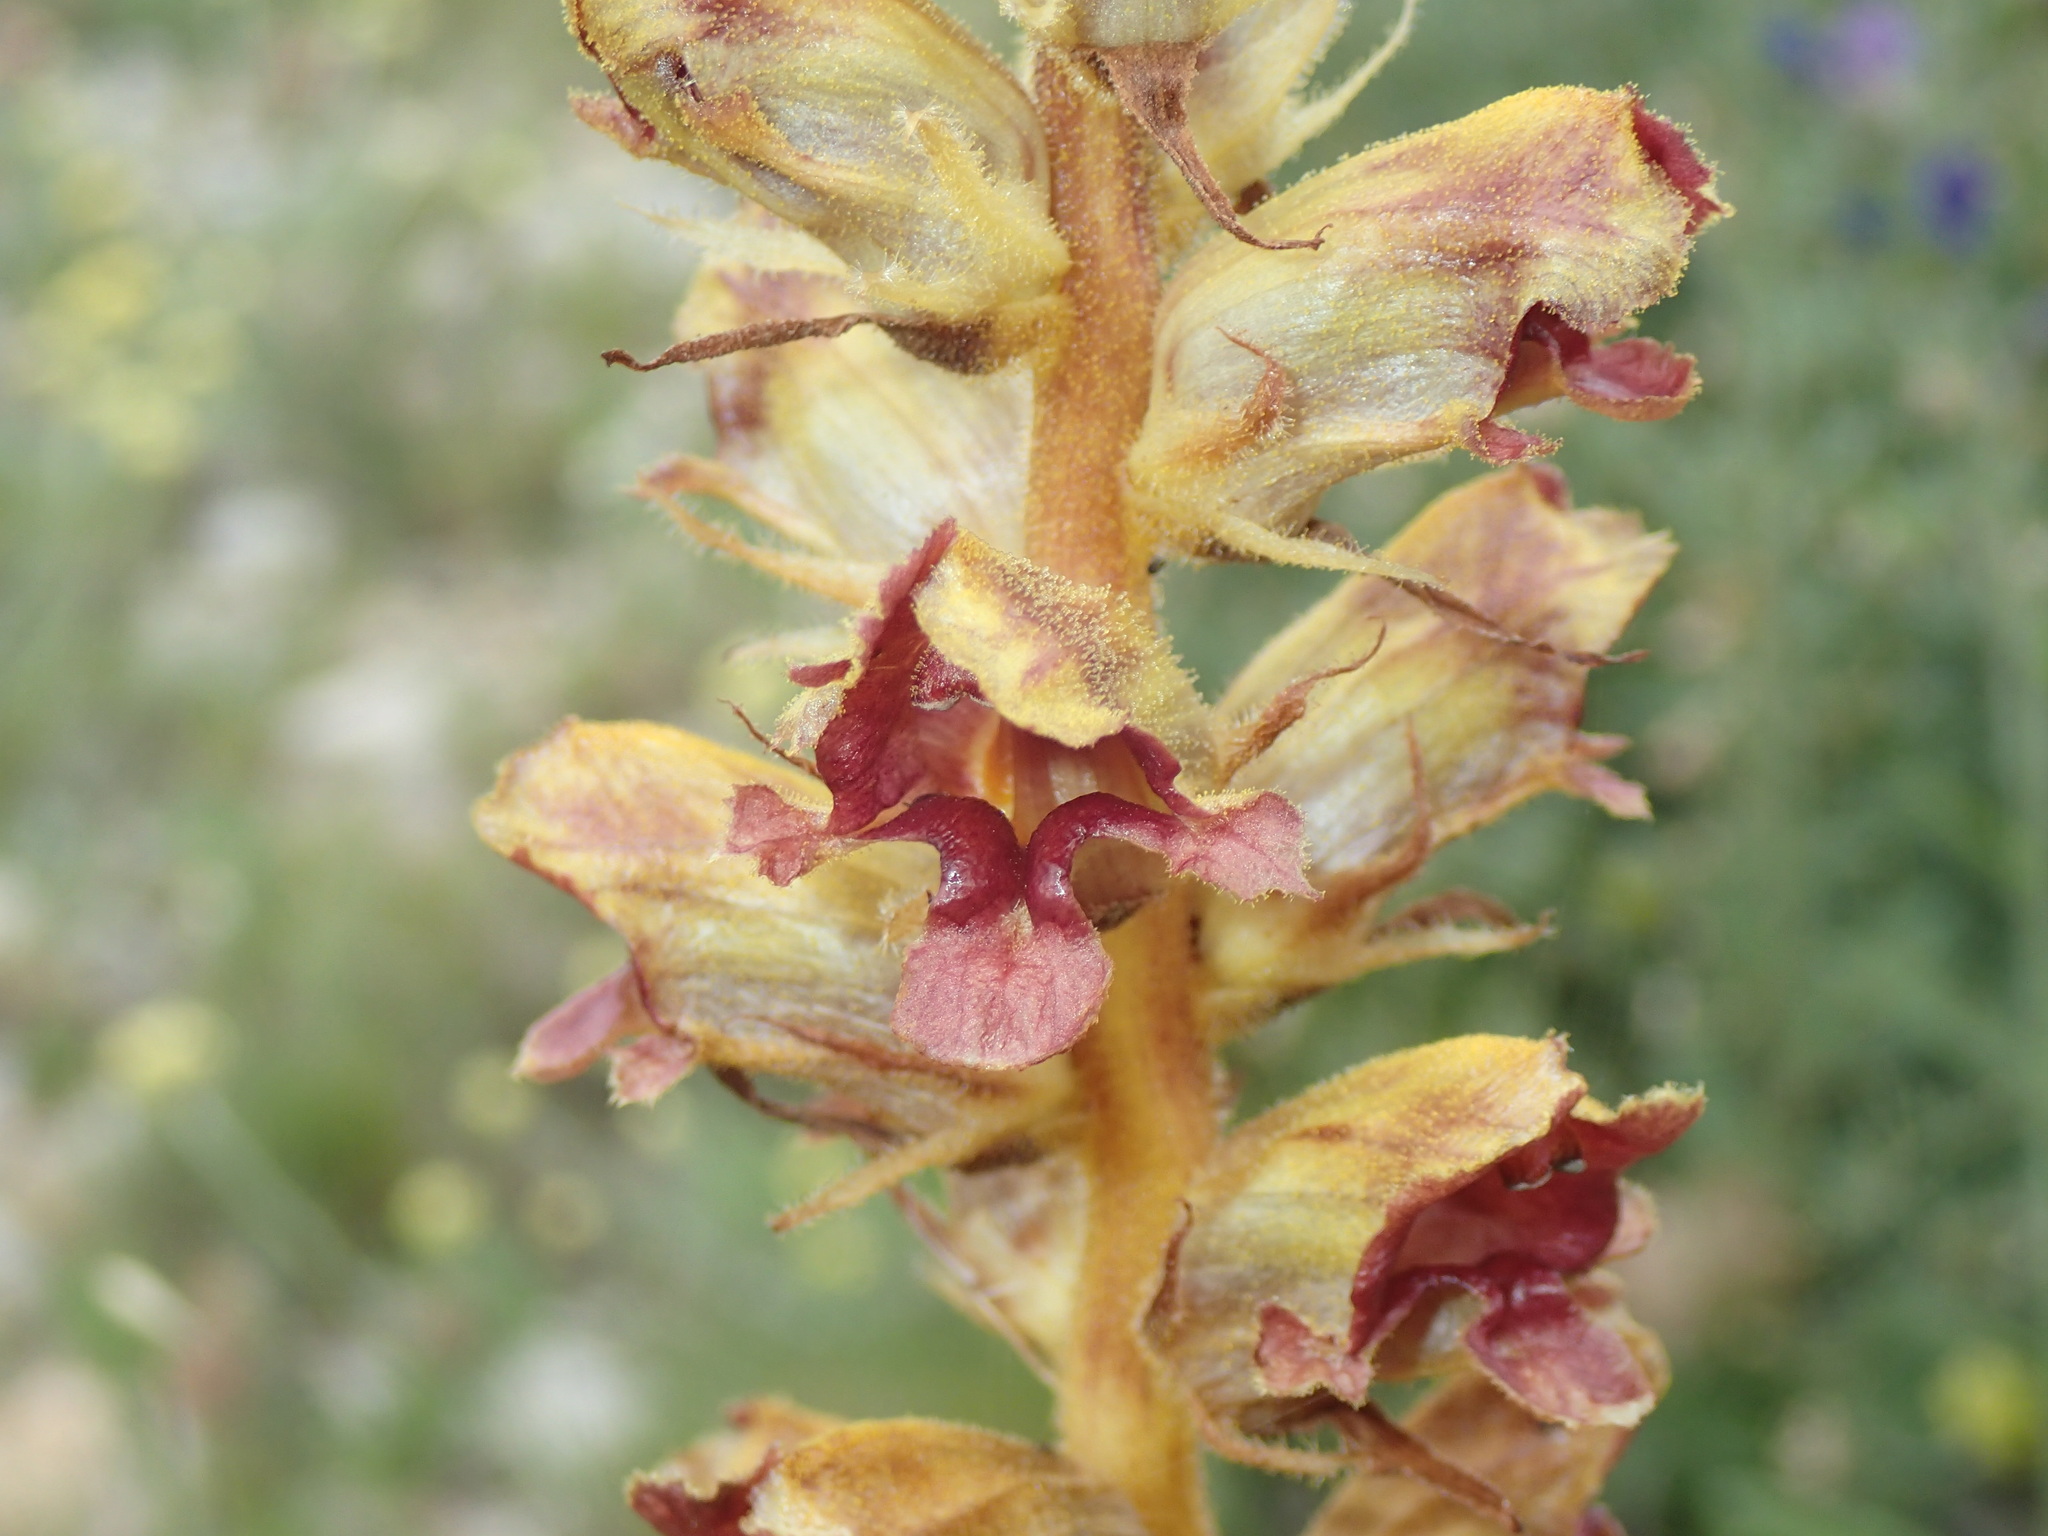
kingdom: Plantae
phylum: Tracheophyta
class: Magnoliopsida
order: Lamiales
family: Orobanchaceae
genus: Orobanche
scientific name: Orobanche gracilis
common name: Slender broomrape
